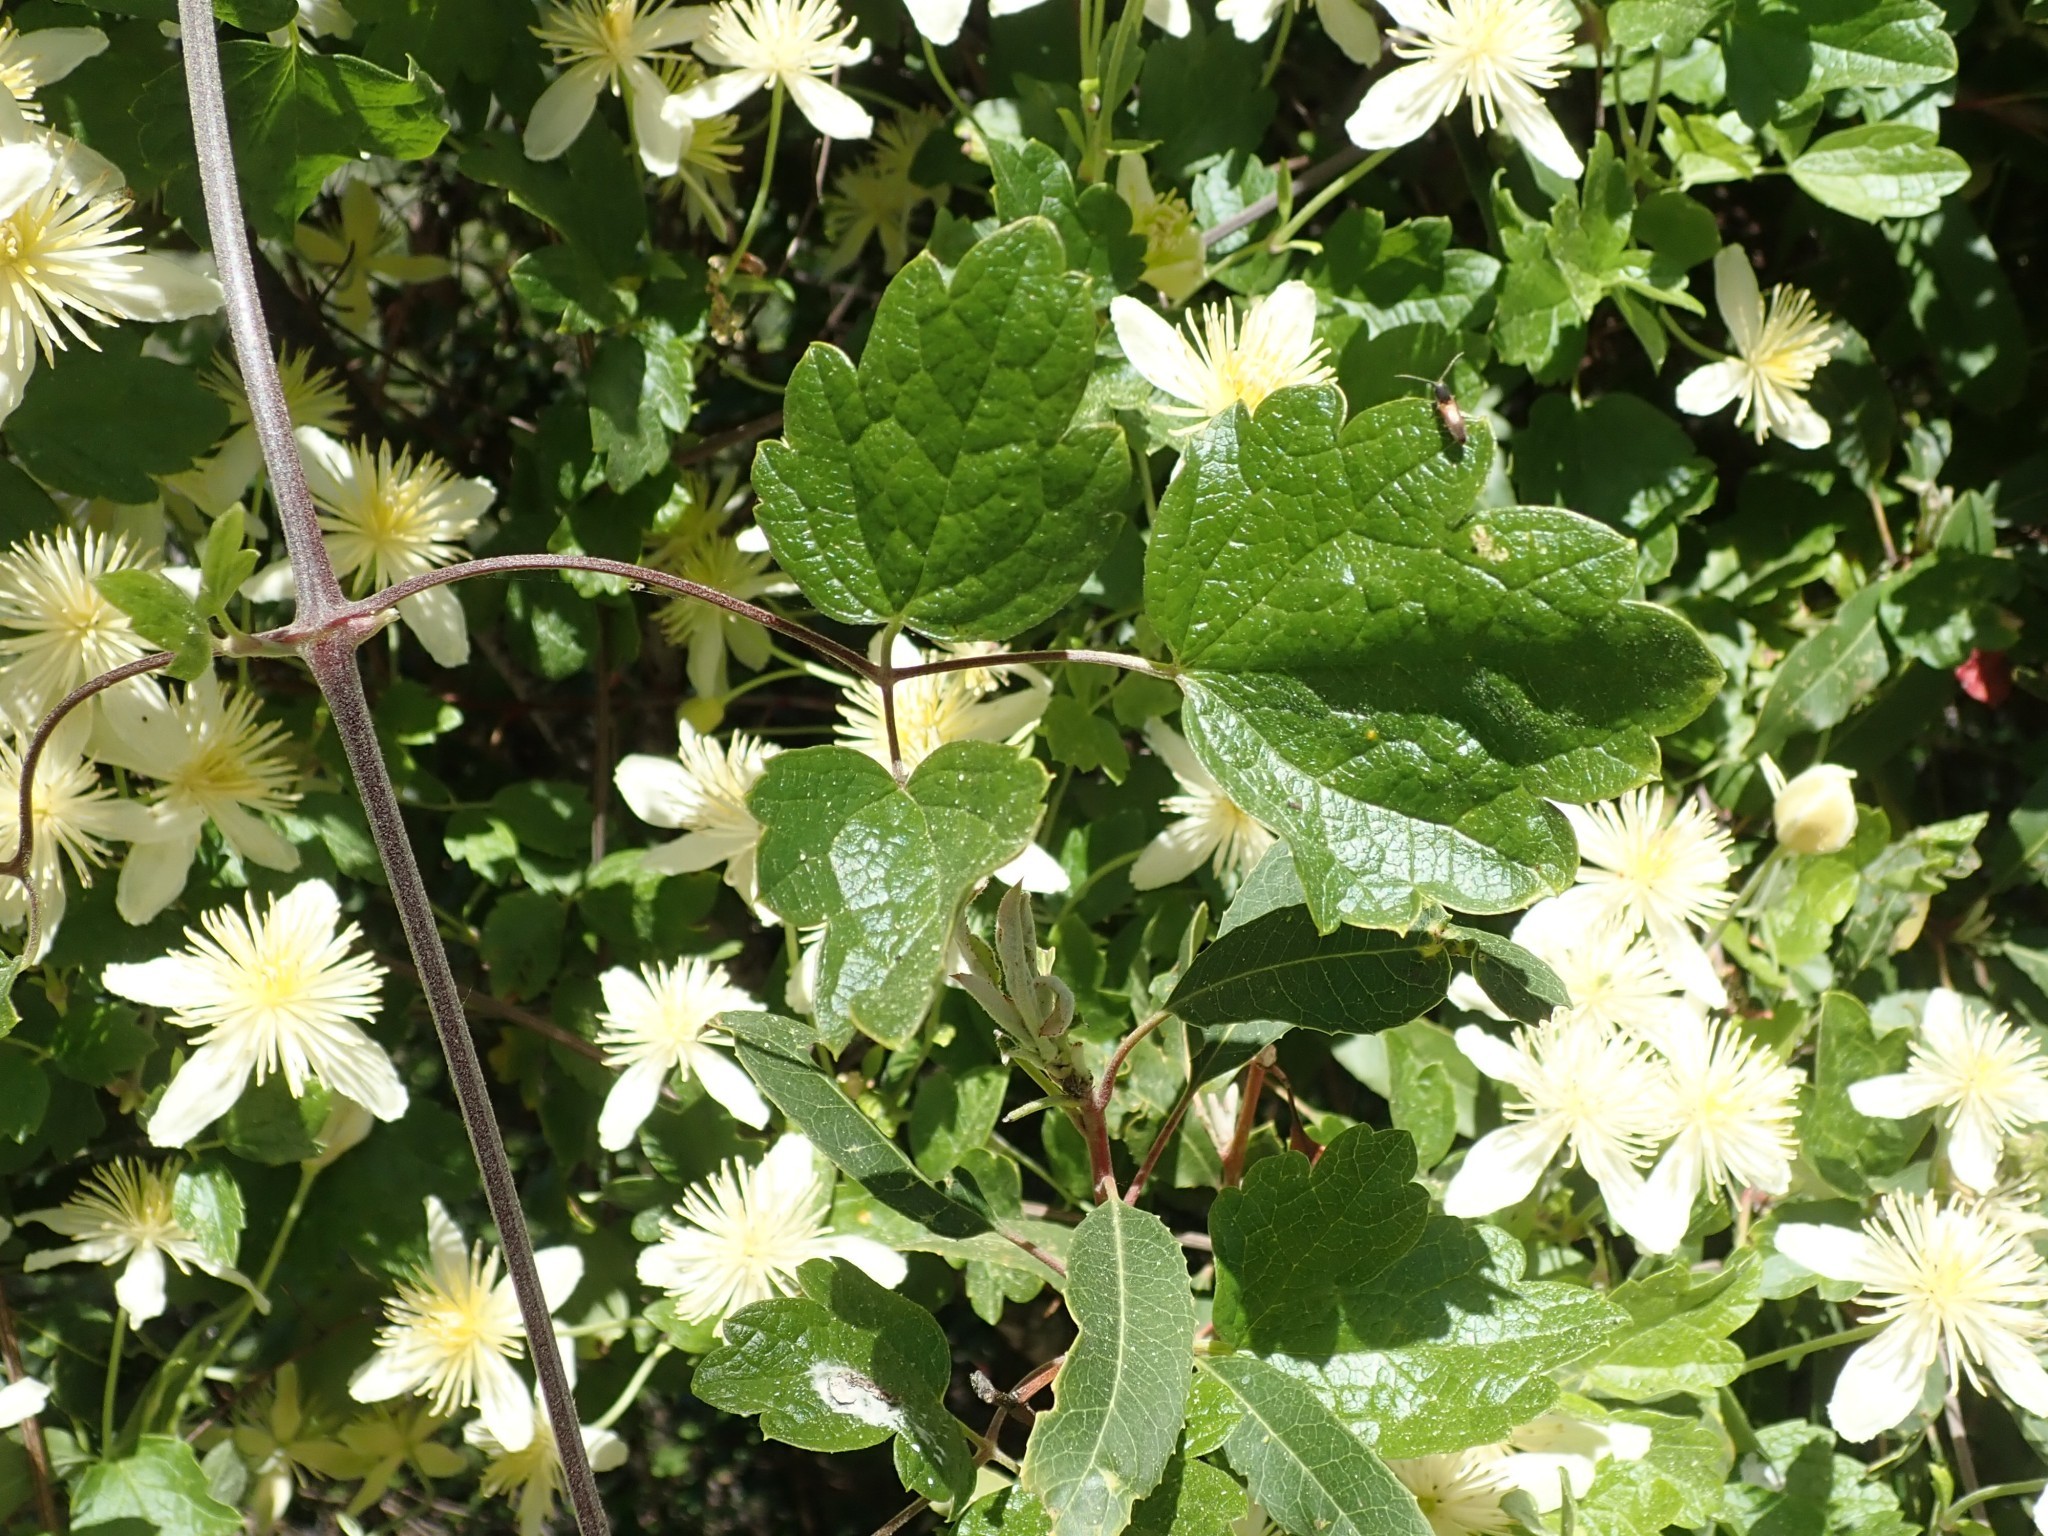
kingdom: Plantae
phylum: Tracheophyta
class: Magnoliopsida
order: Ranunculales
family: Ranunculaceae
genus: Clematis
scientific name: Clematis lasiantha
